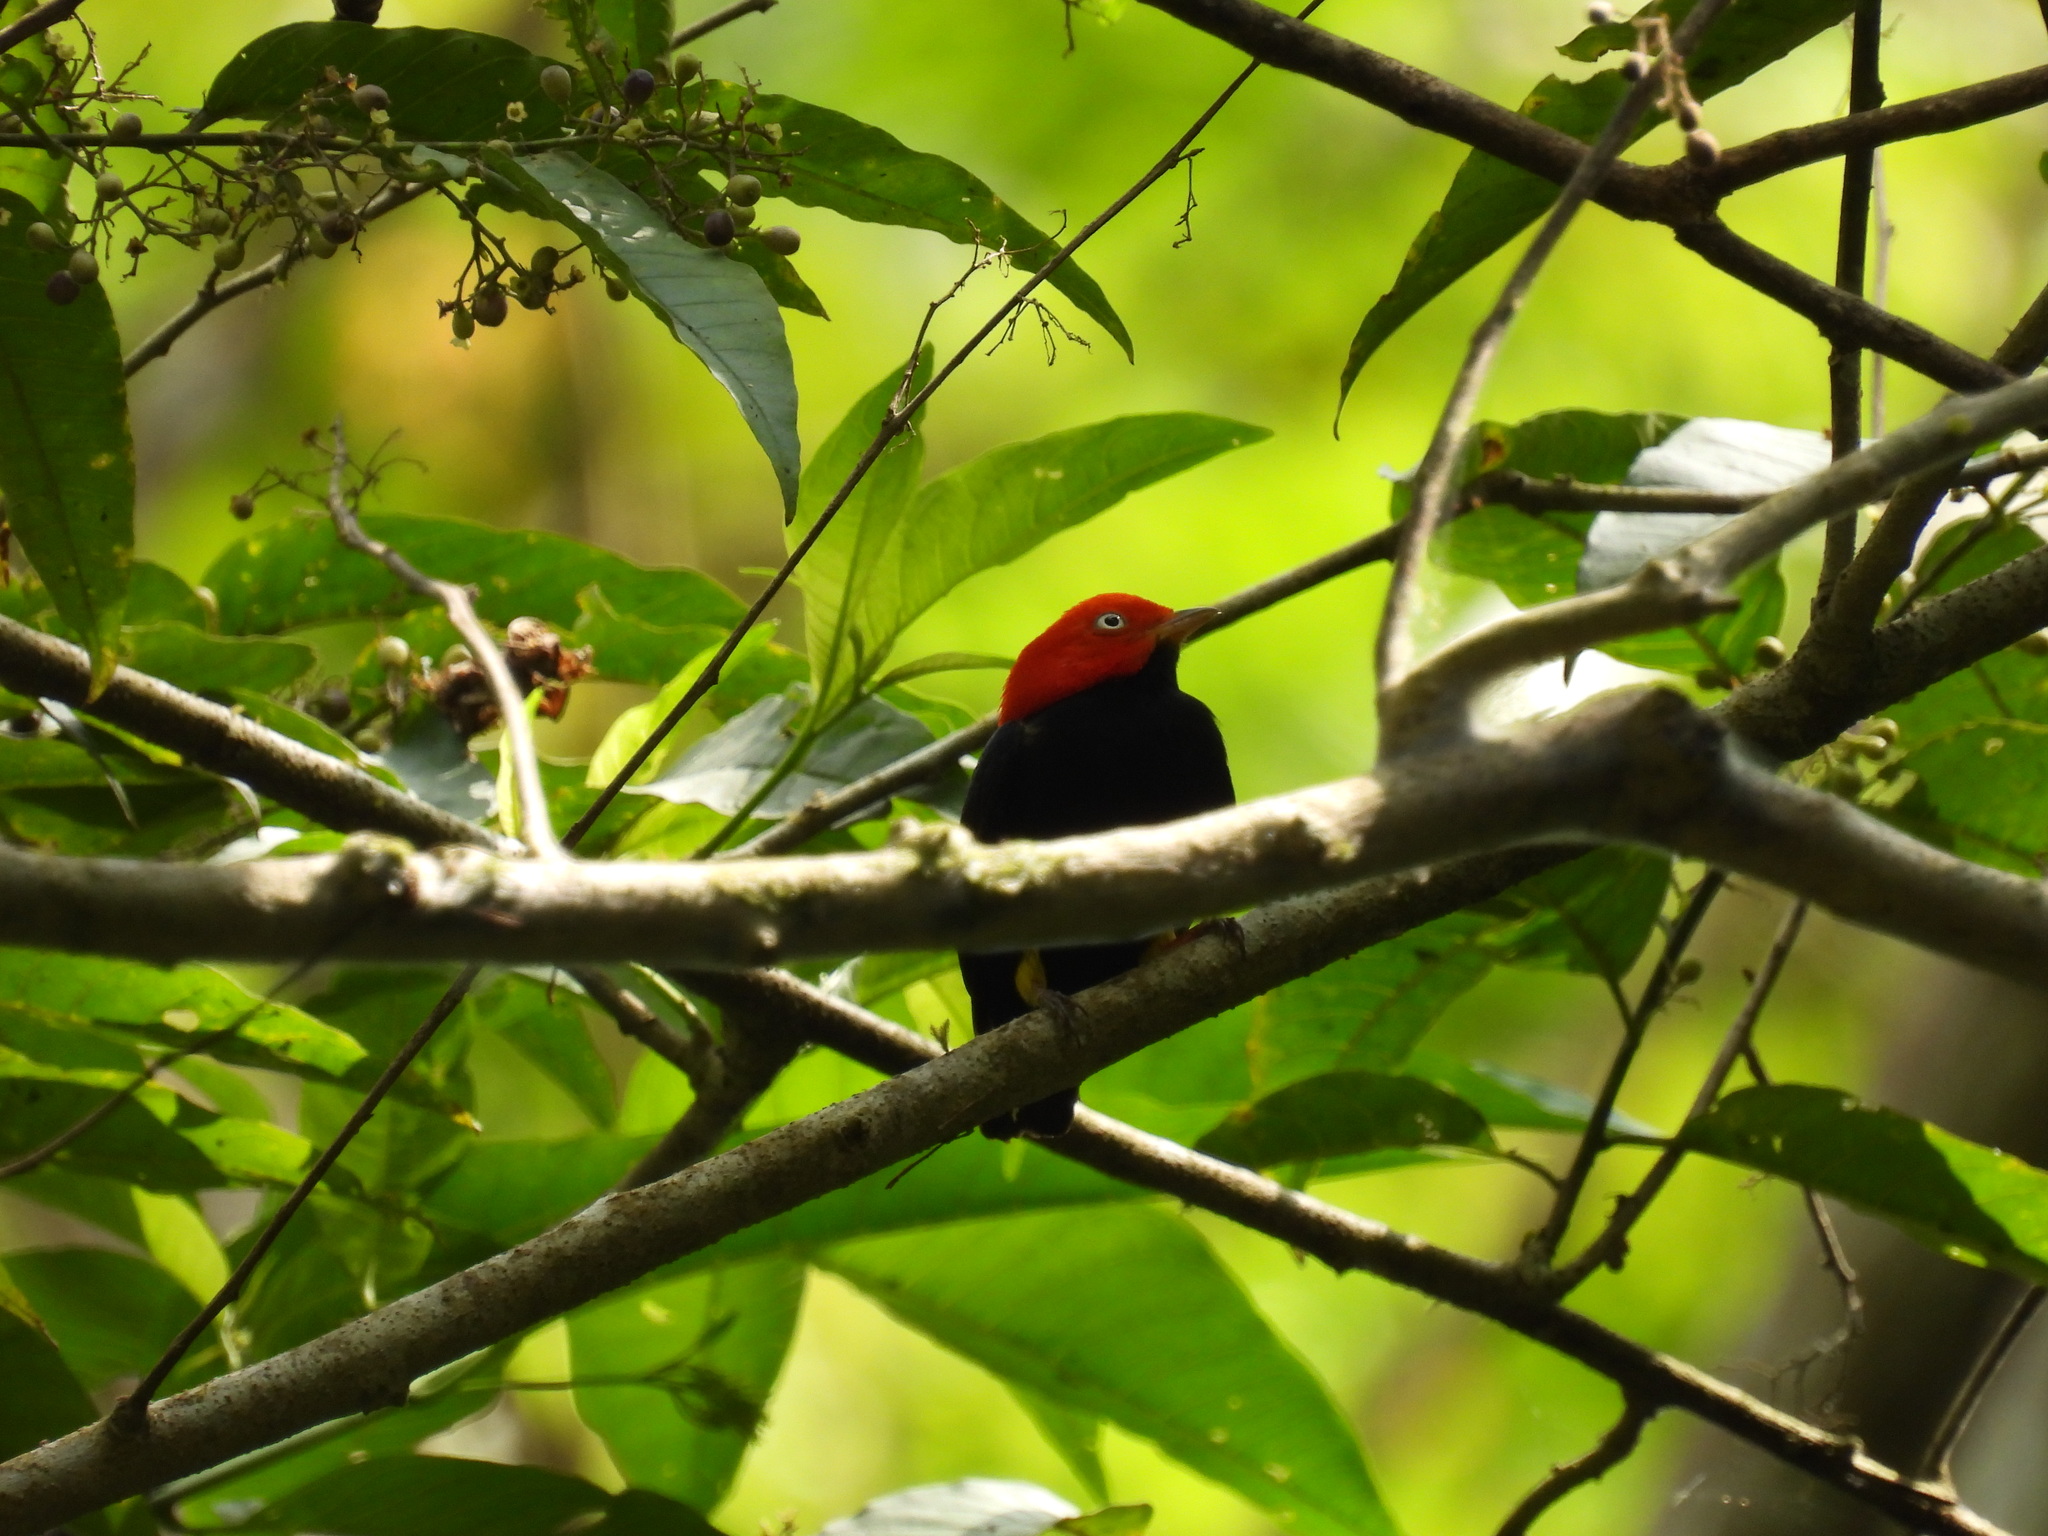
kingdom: Animalia
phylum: Chordata
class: Aves
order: Passeriformes
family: Pipridae
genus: Pipra
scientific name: Pipra mentalis
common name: Red-capped manakin
